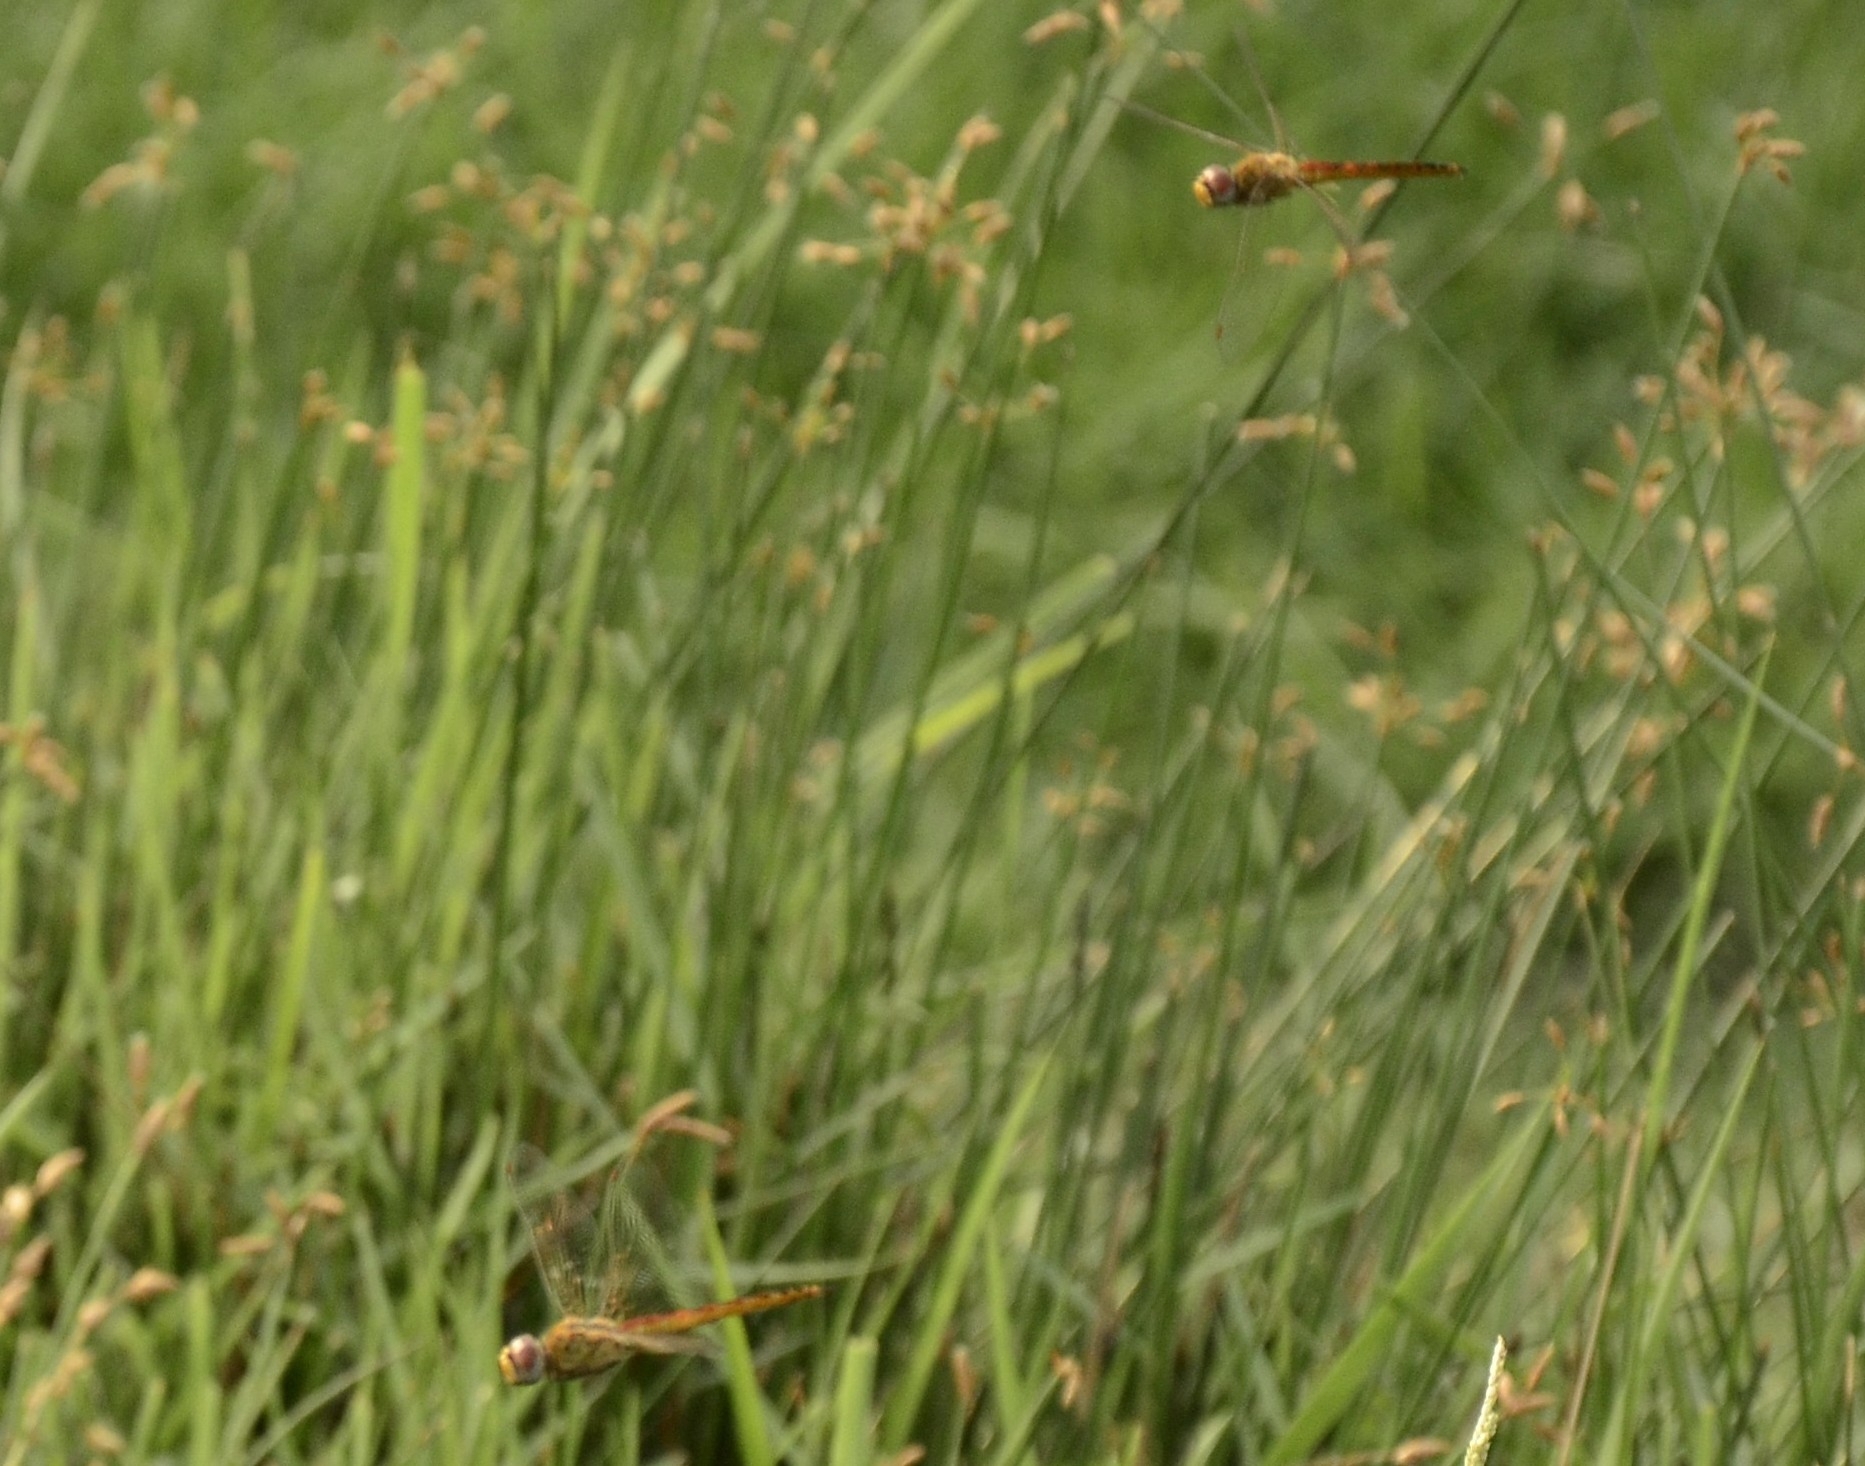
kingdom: Animalia
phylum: Arthropoda
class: Insecta
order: Odonata
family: Libellulidae
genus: Pantala
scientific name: Pantala flavescens
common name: Wandering glider
